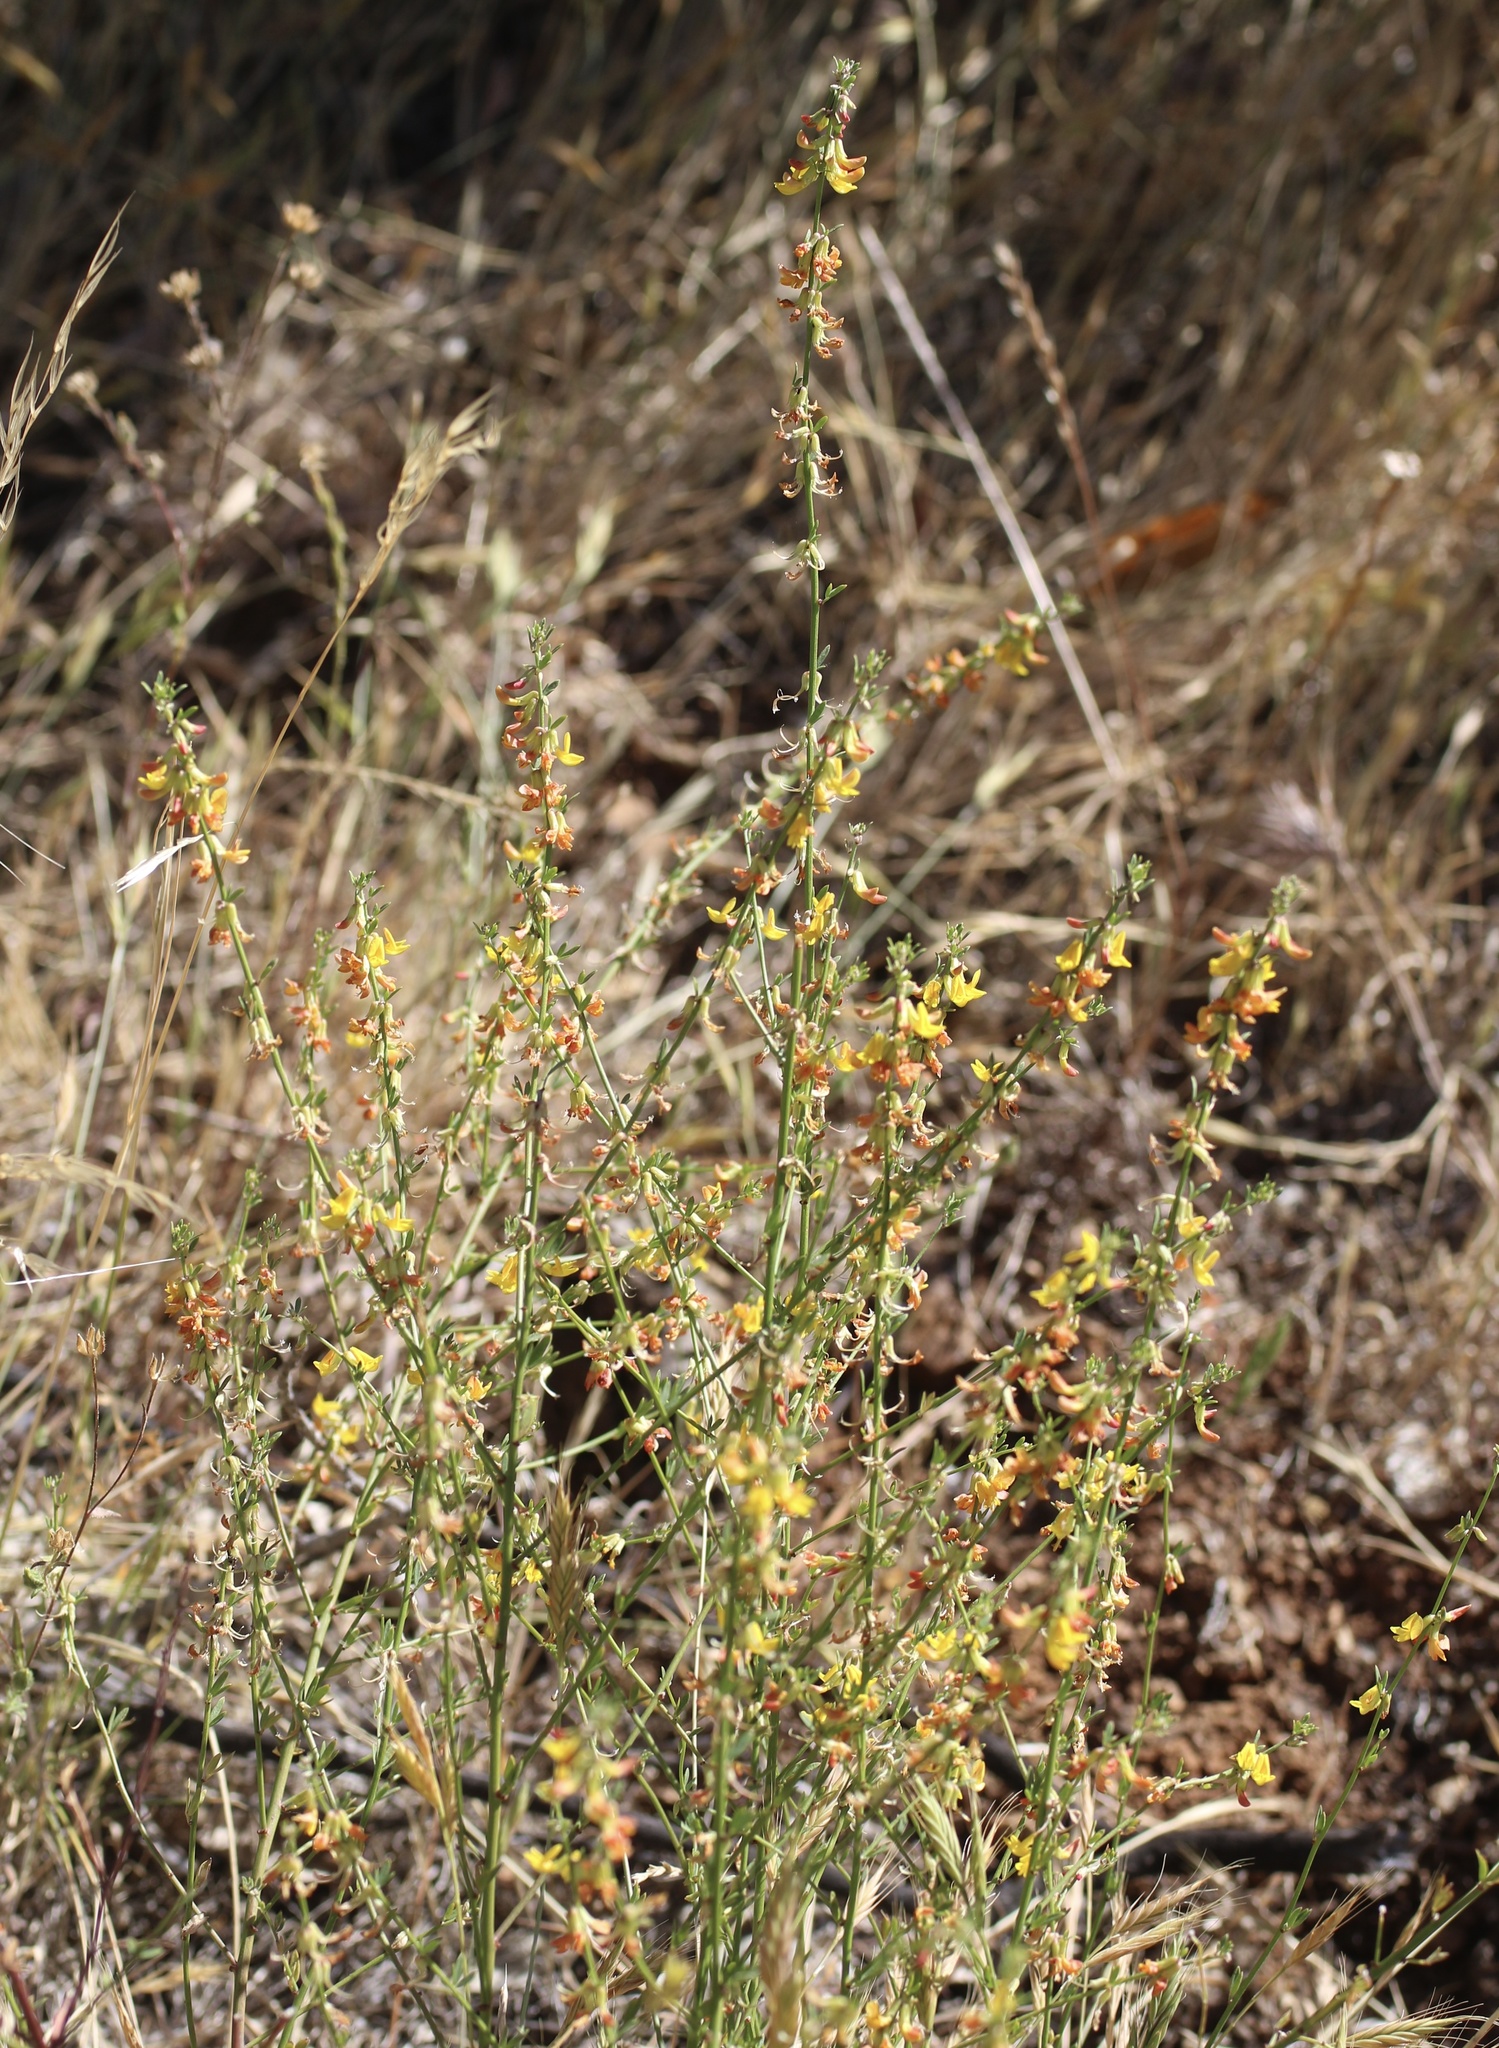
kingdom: Plantae
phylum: Tracheophyta
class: Magnoliopsida
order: Fabales
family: Fabaceae
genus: Acmispon
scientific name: Acmispon glaber
